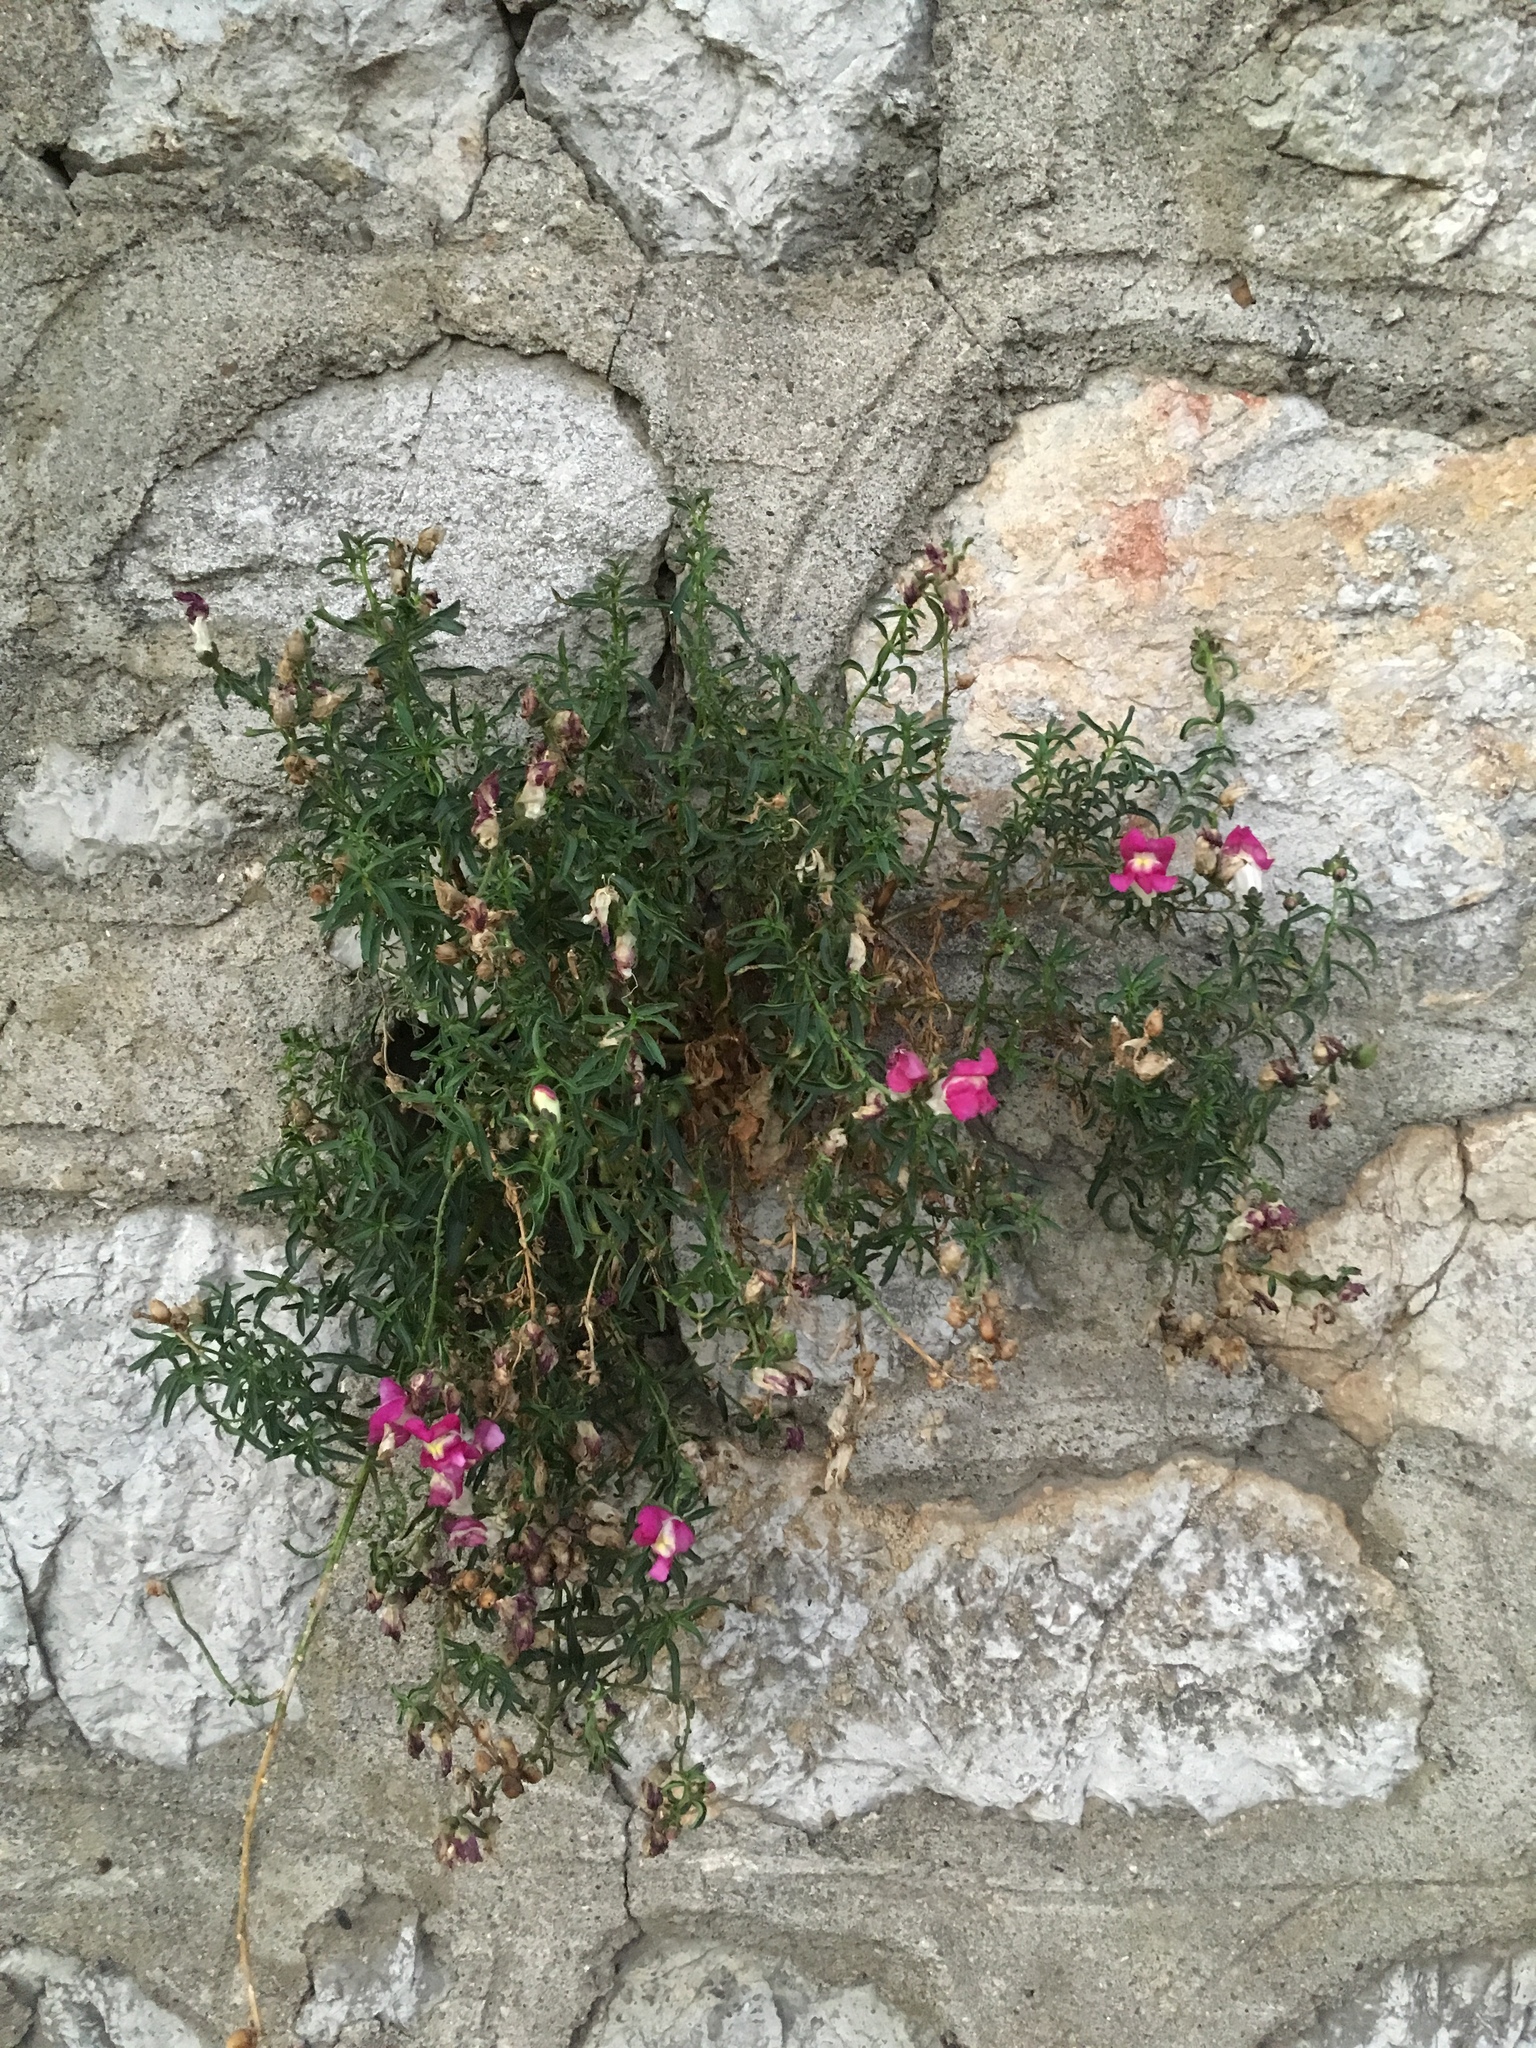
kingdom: Plantae
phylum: Tracheophyta
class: Magnoliopsida
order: Lamiales
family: Plantaginaceae
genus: Antirrhinum
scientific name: Antirrhinum majus
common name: Snapdragon
